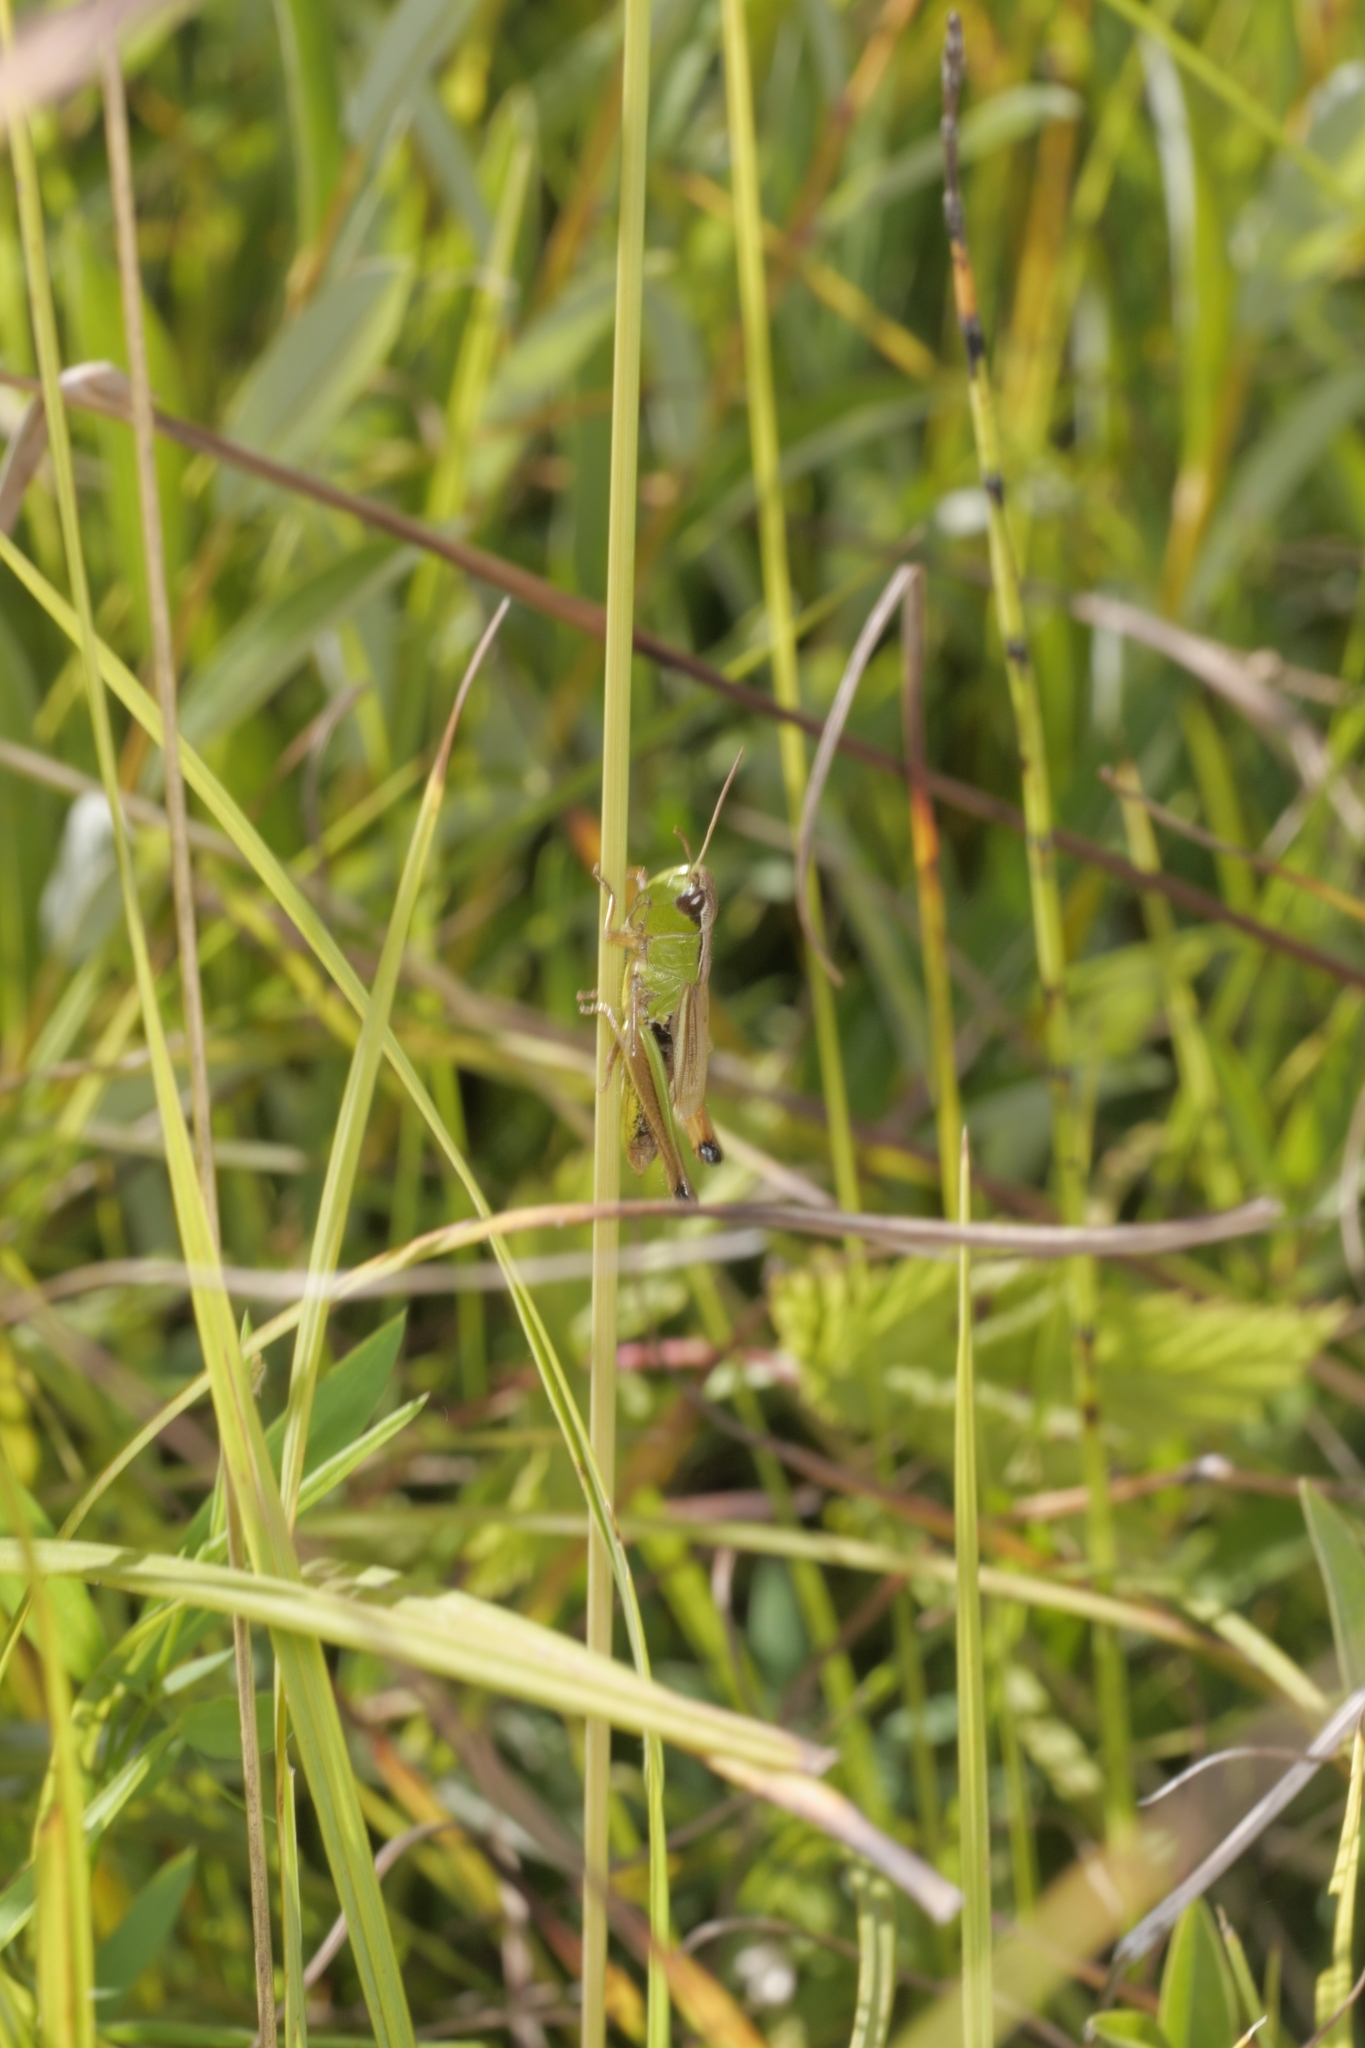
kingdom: Animalia
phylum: Arthropoda
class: Insecta
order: Orthoptera
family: Acrididae
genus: Pseudochorthippus
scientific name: Pseudochorthippus montanus
